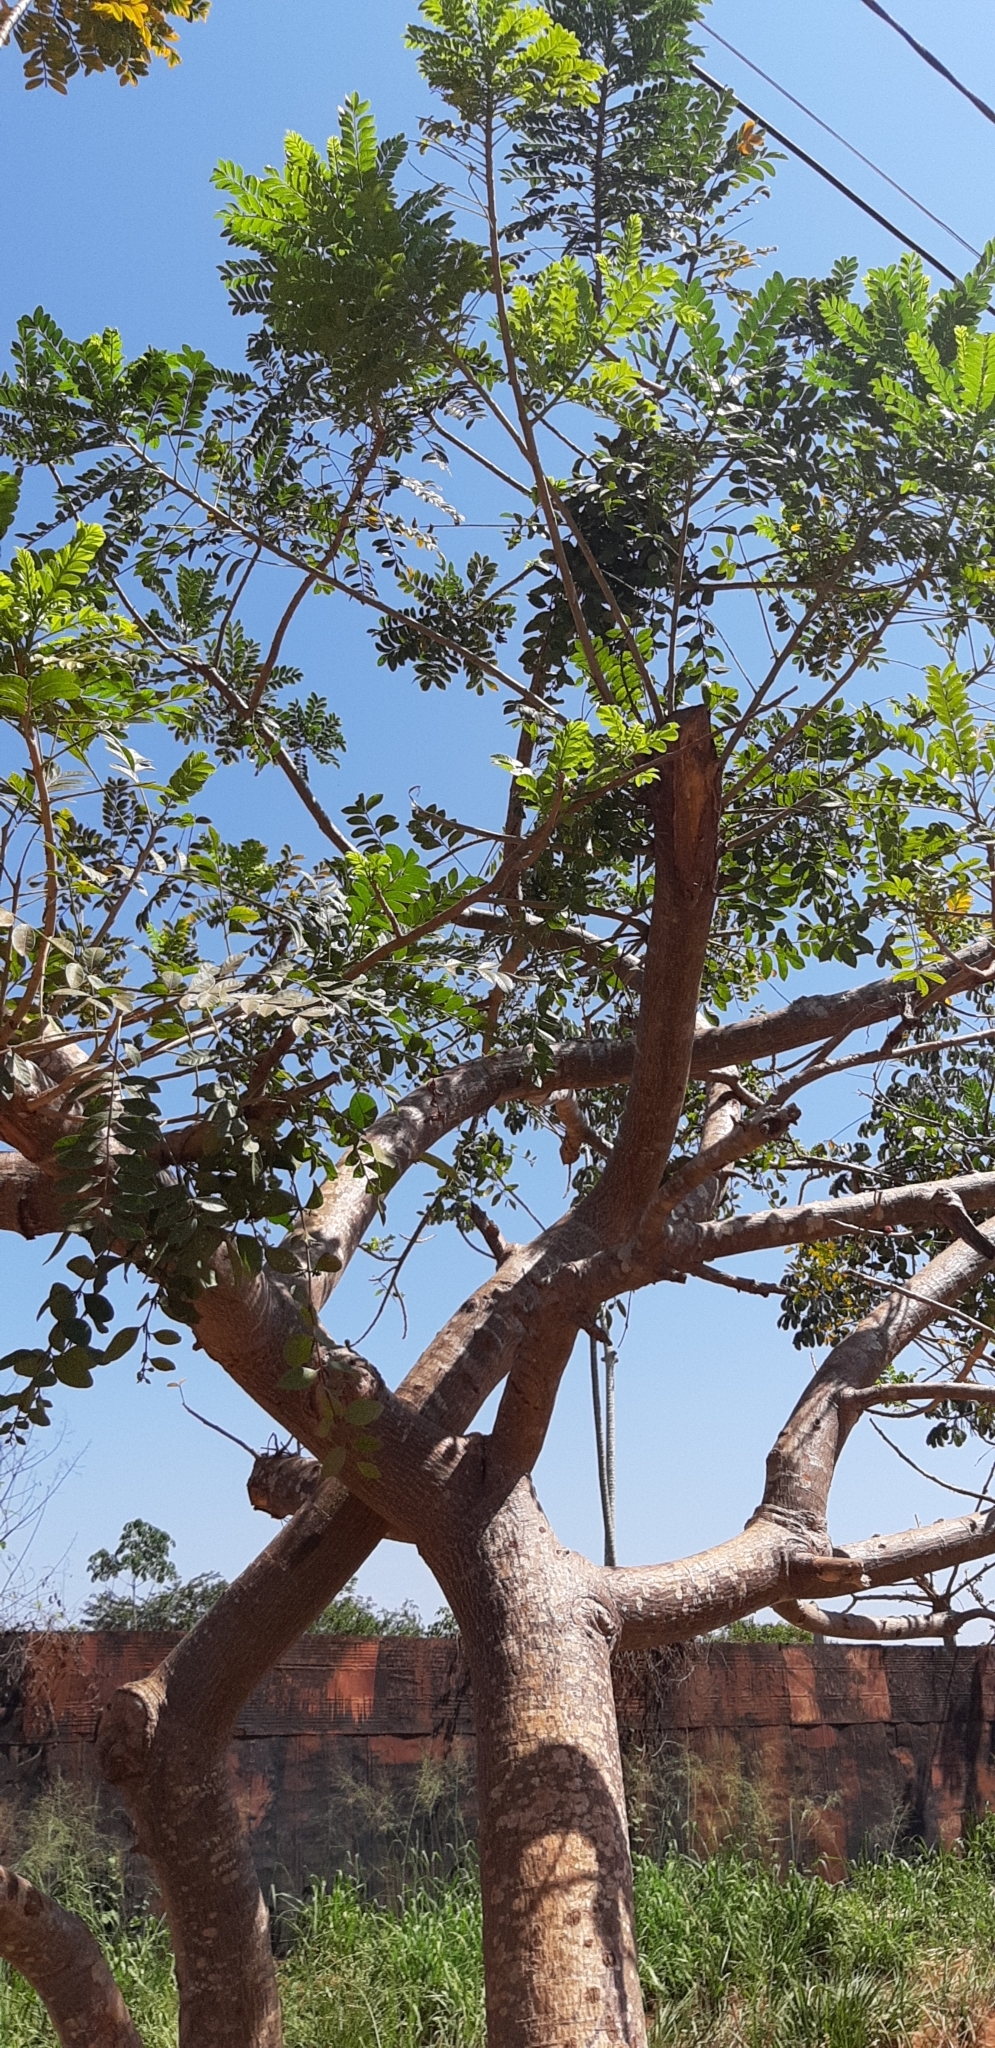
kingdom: Plantae
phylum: Tracheophyta
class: Magnoliopsida
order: Sapindales
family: Anacardiaceae
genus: Spondias
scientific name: Spondias mombin
